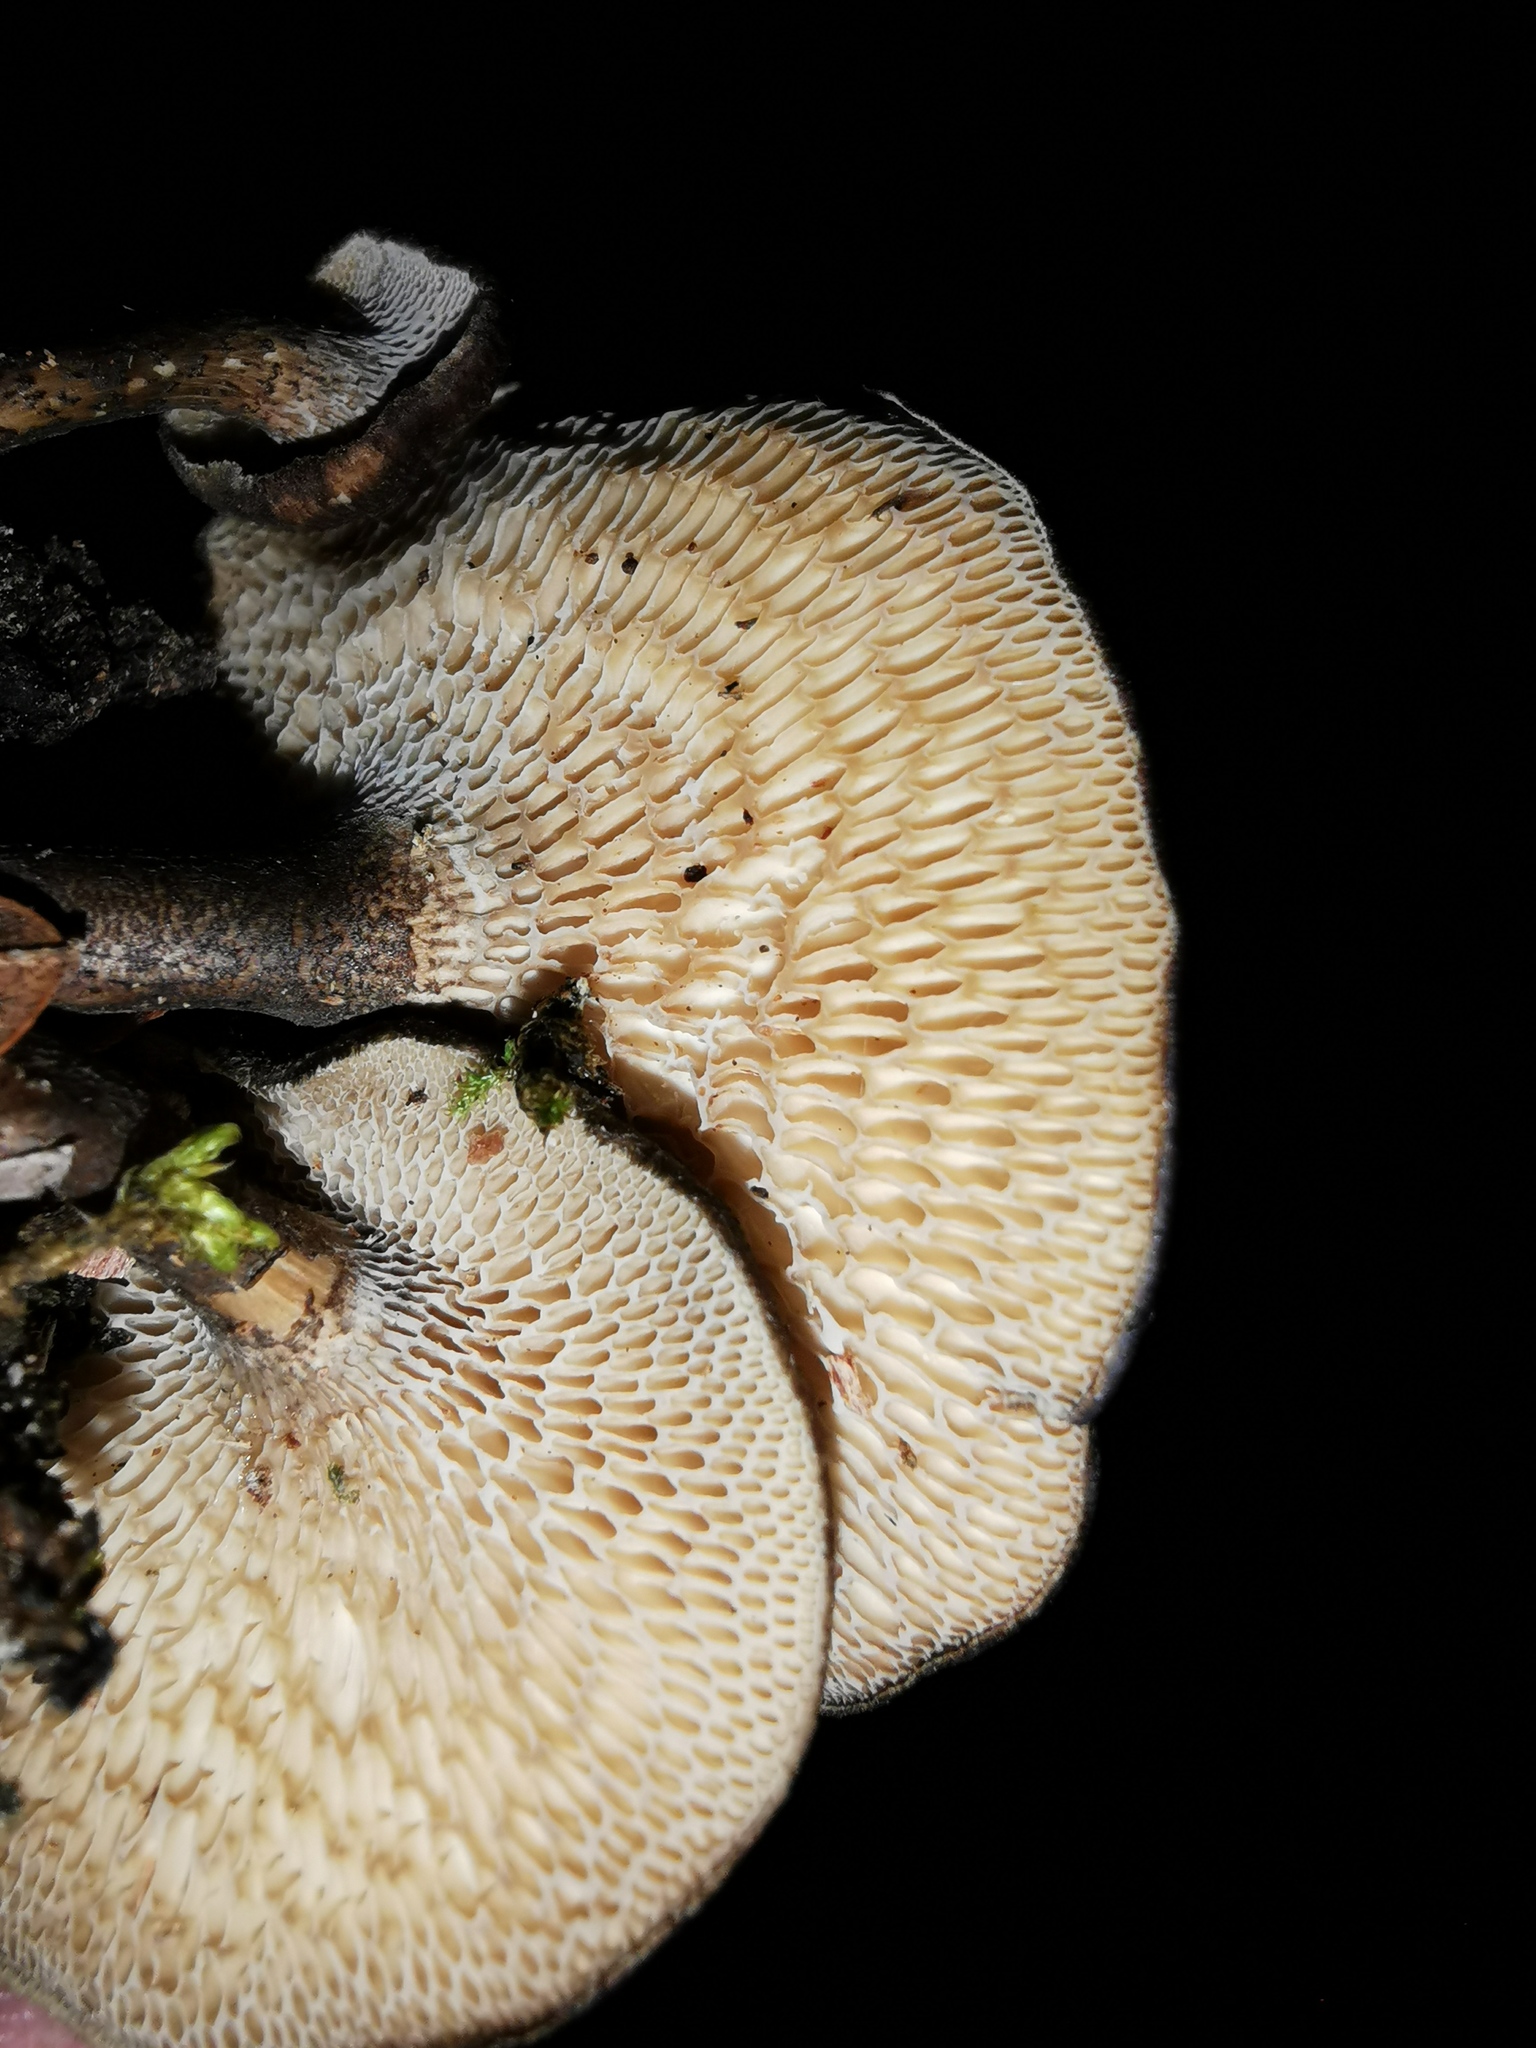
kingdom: Fungi
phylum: Basidiomycota
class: Agaricomycetes
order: Polyporales
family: Polyporaceae
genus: Lentinus
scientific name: Lentinus arcularius
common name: Spring polypore
